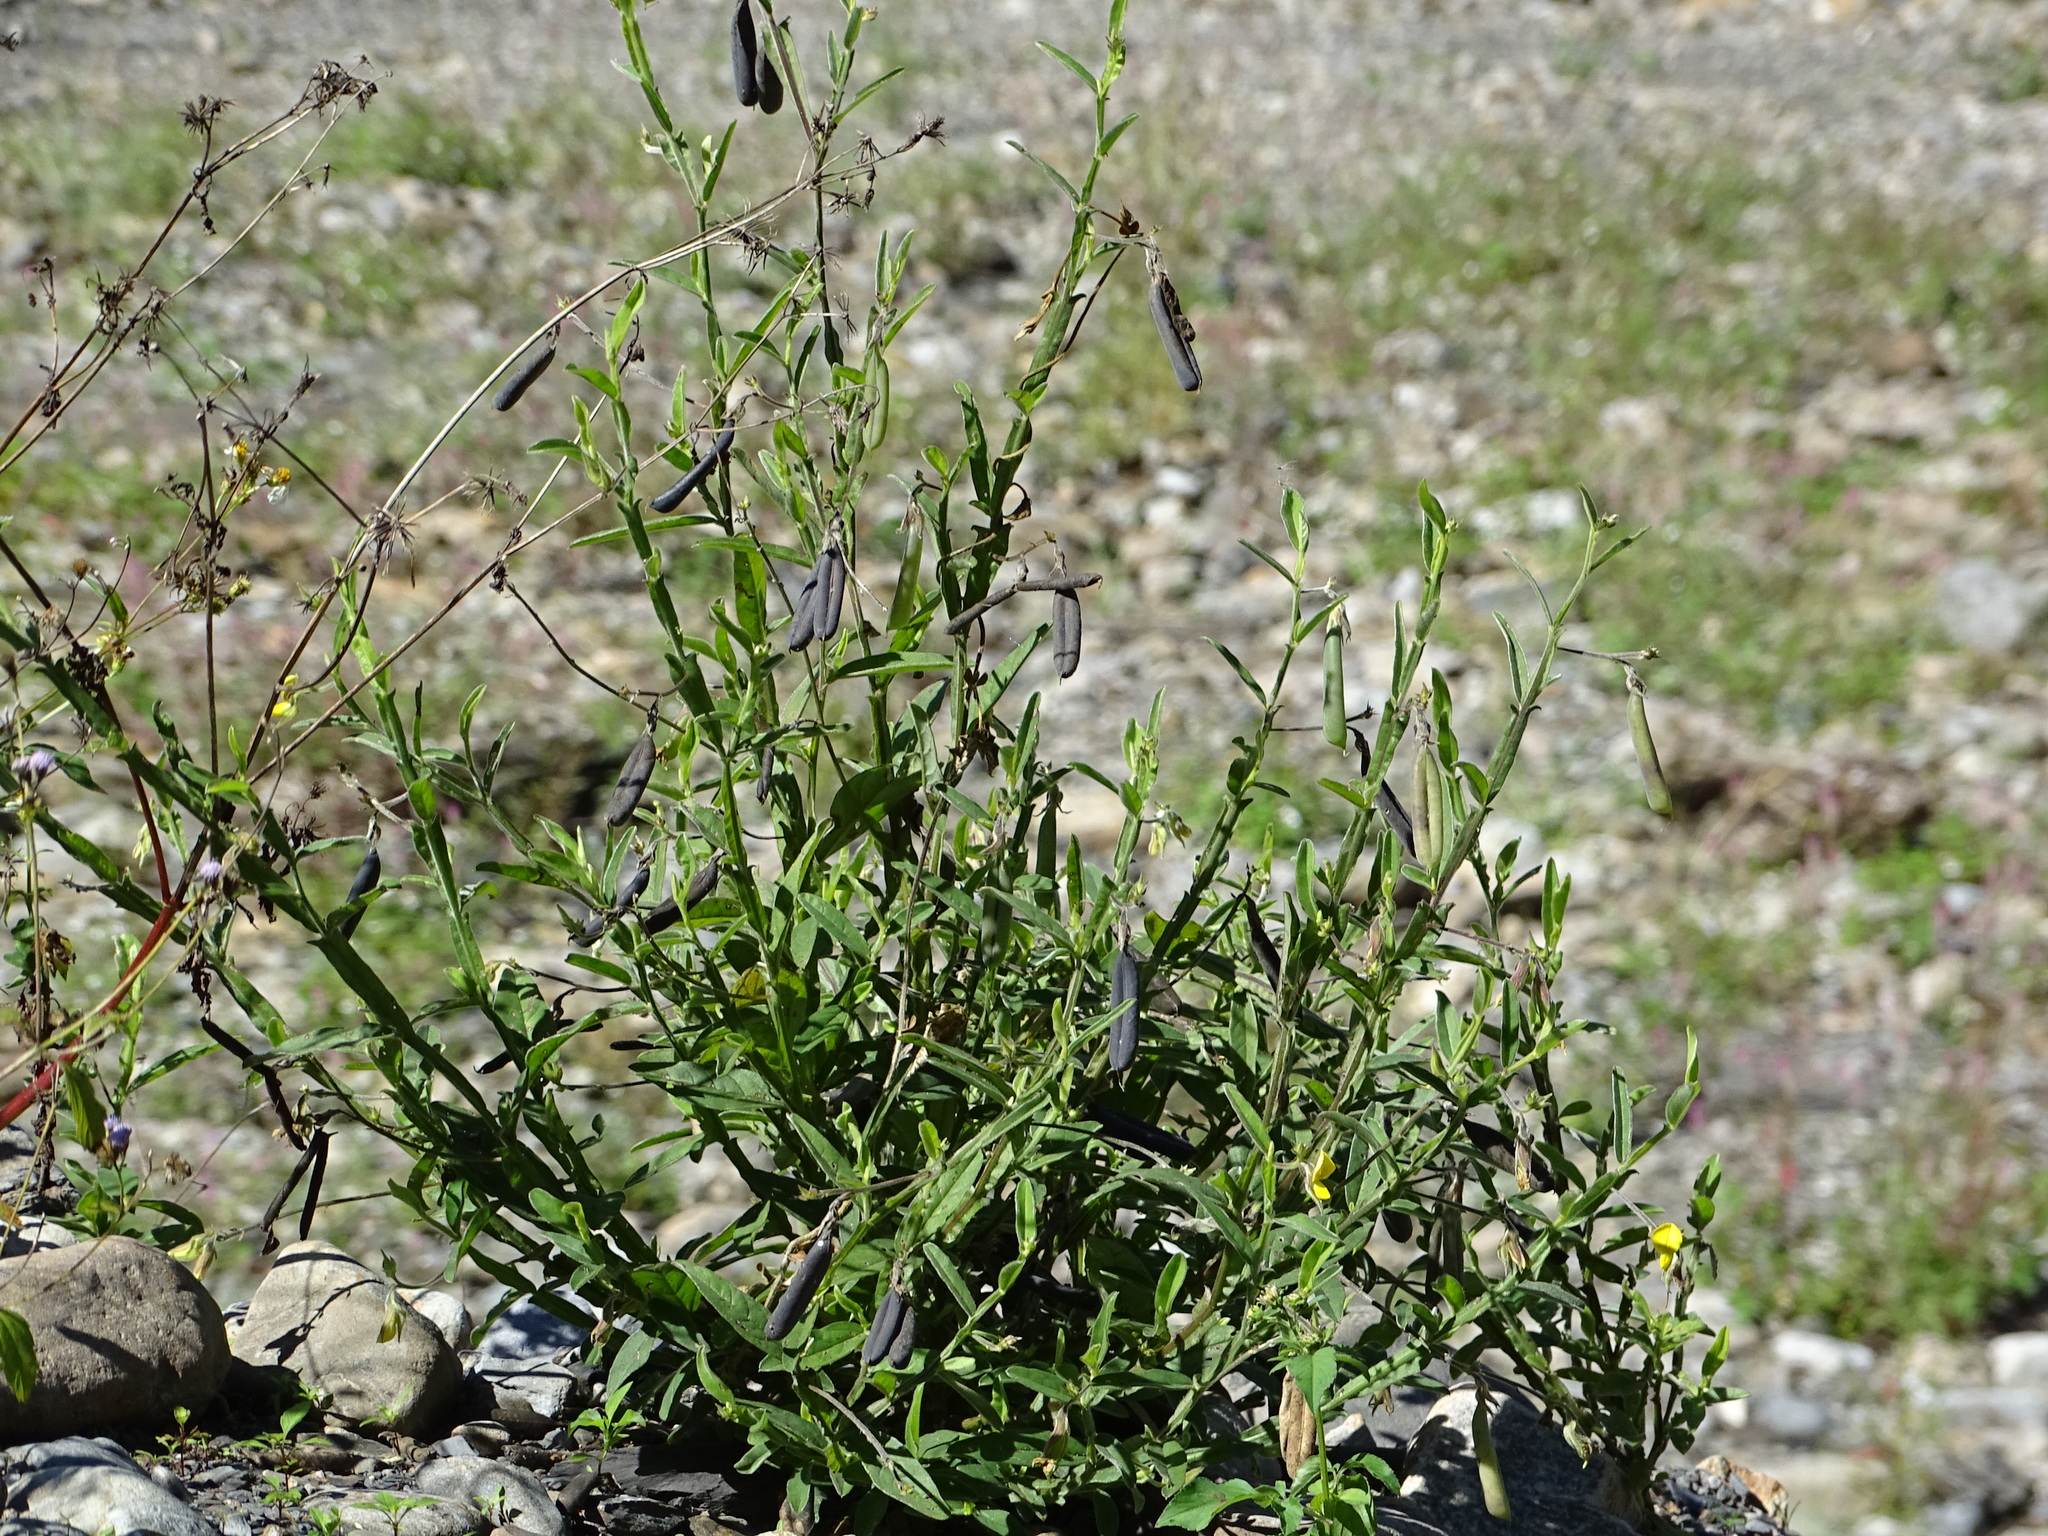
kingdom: Plantae
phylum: Tracheophyta
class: Magnoliopsida
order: Fabales
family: Fabaceae
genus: Crotalaria
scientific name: Crotalaria
